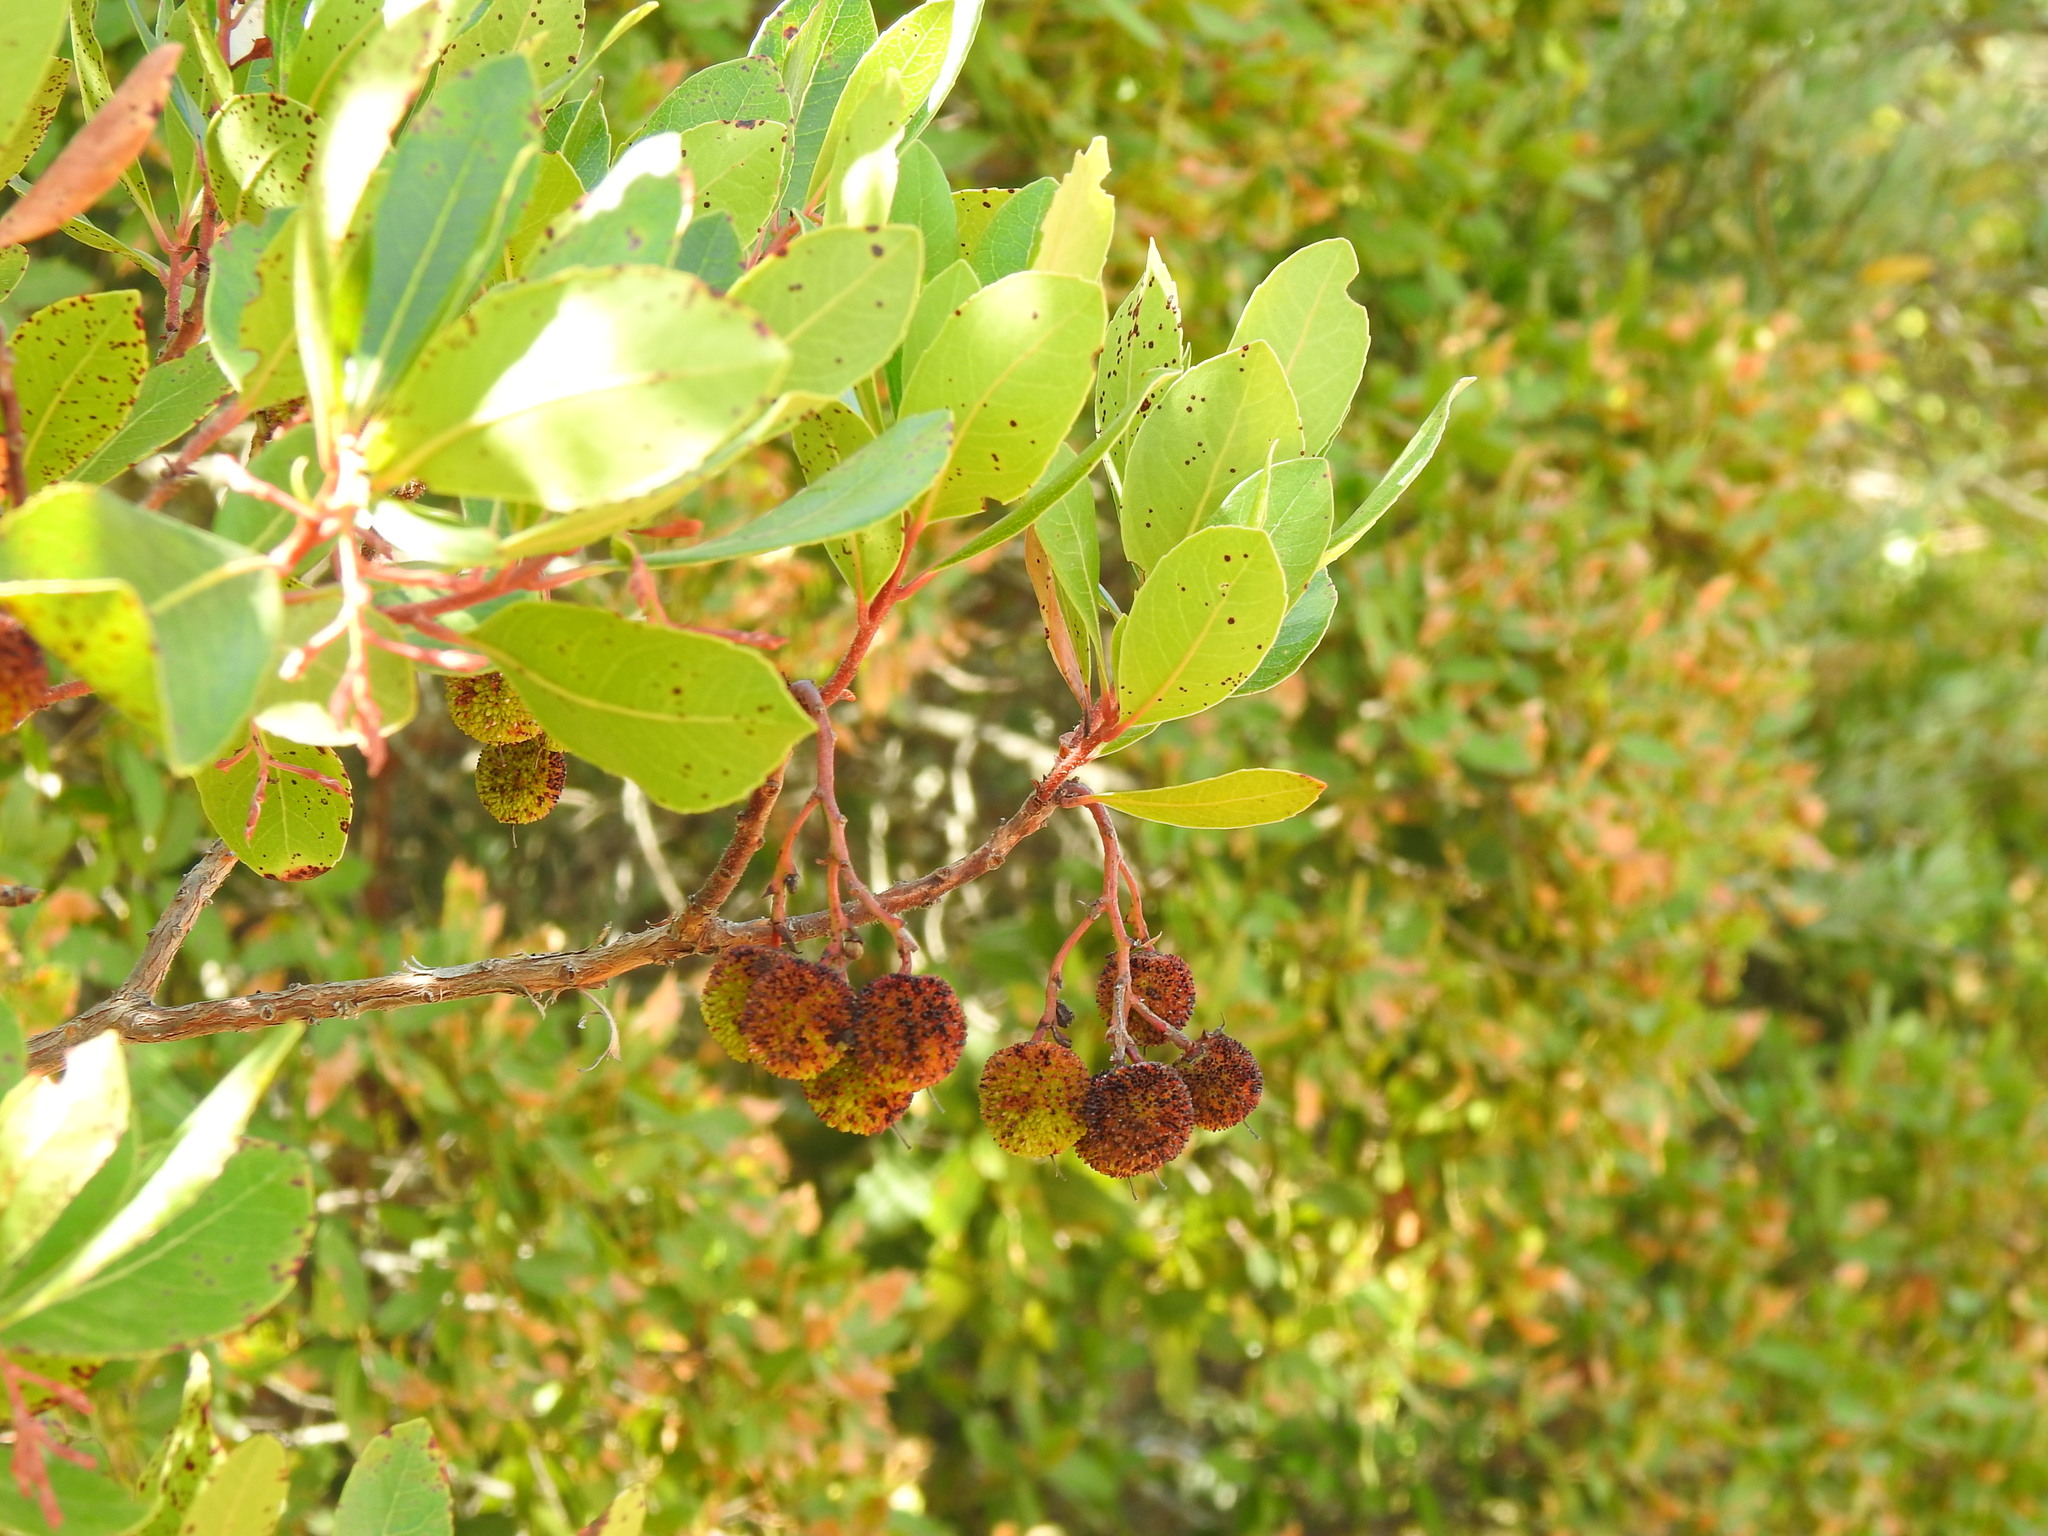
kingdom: Plantae
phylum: Tracheophyta
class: Magnoliopsida
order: Ericales
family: Ericaceae
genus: Arbutus
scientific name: Arbutus unedo
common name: Strawberry-tree
